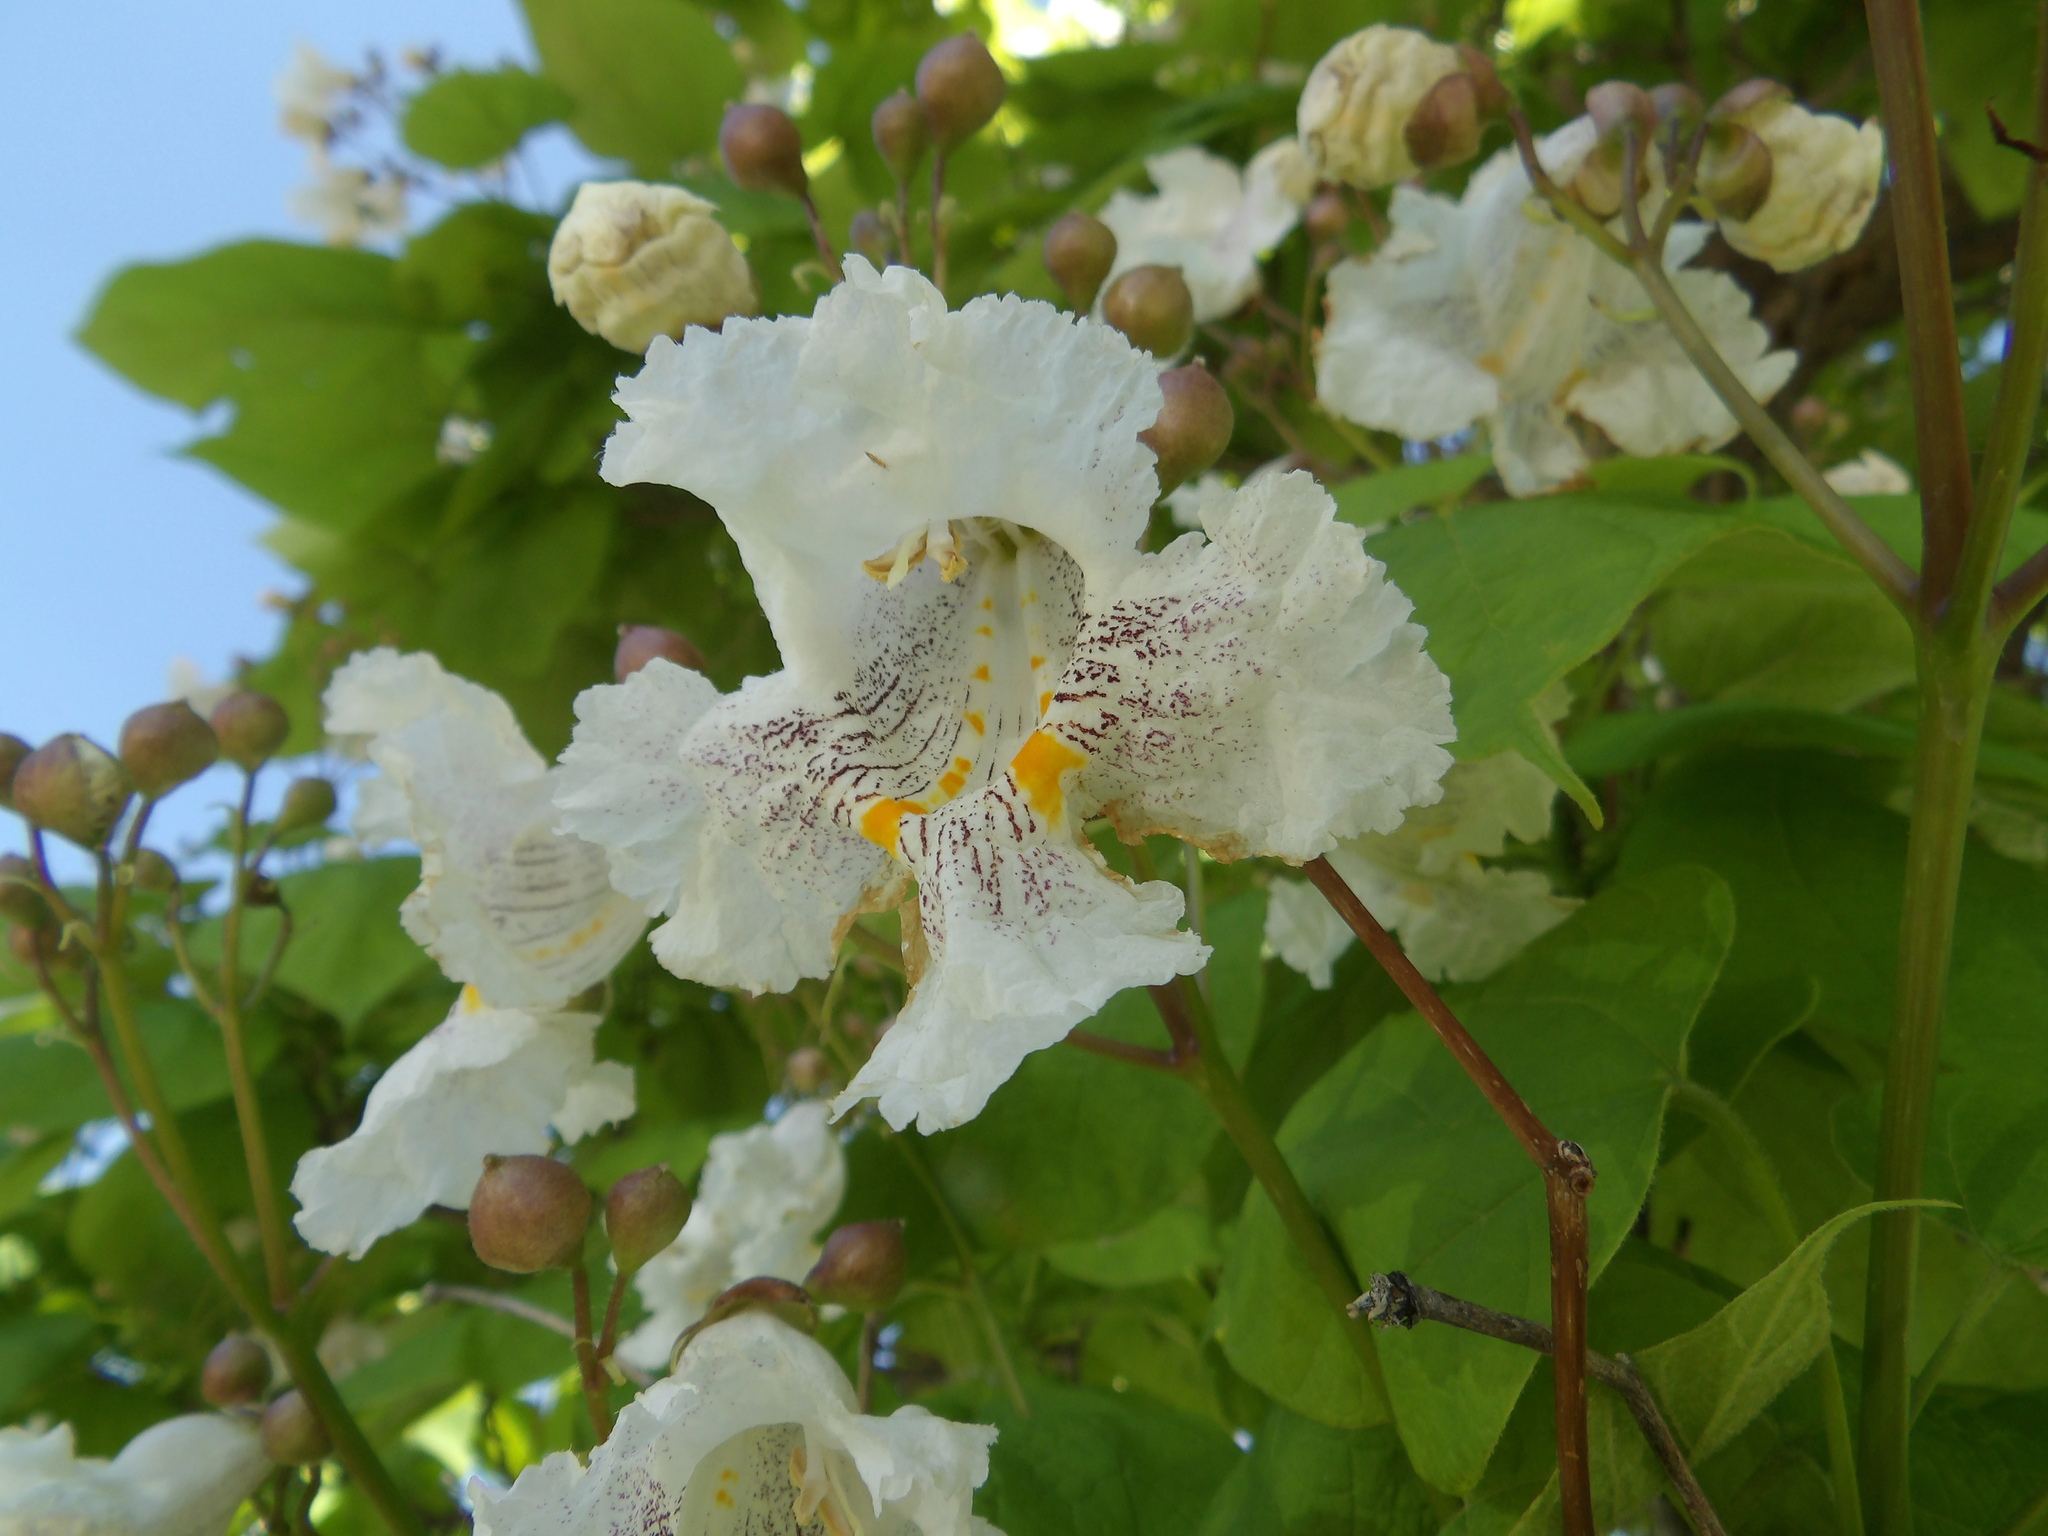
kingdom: Plantae
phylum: Tracheophyta
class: Magnoliopsida
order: Lamiales
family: Bignoniaceae
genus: Catalpa
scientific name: Catalpa speciosa
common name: Northern catalpa
